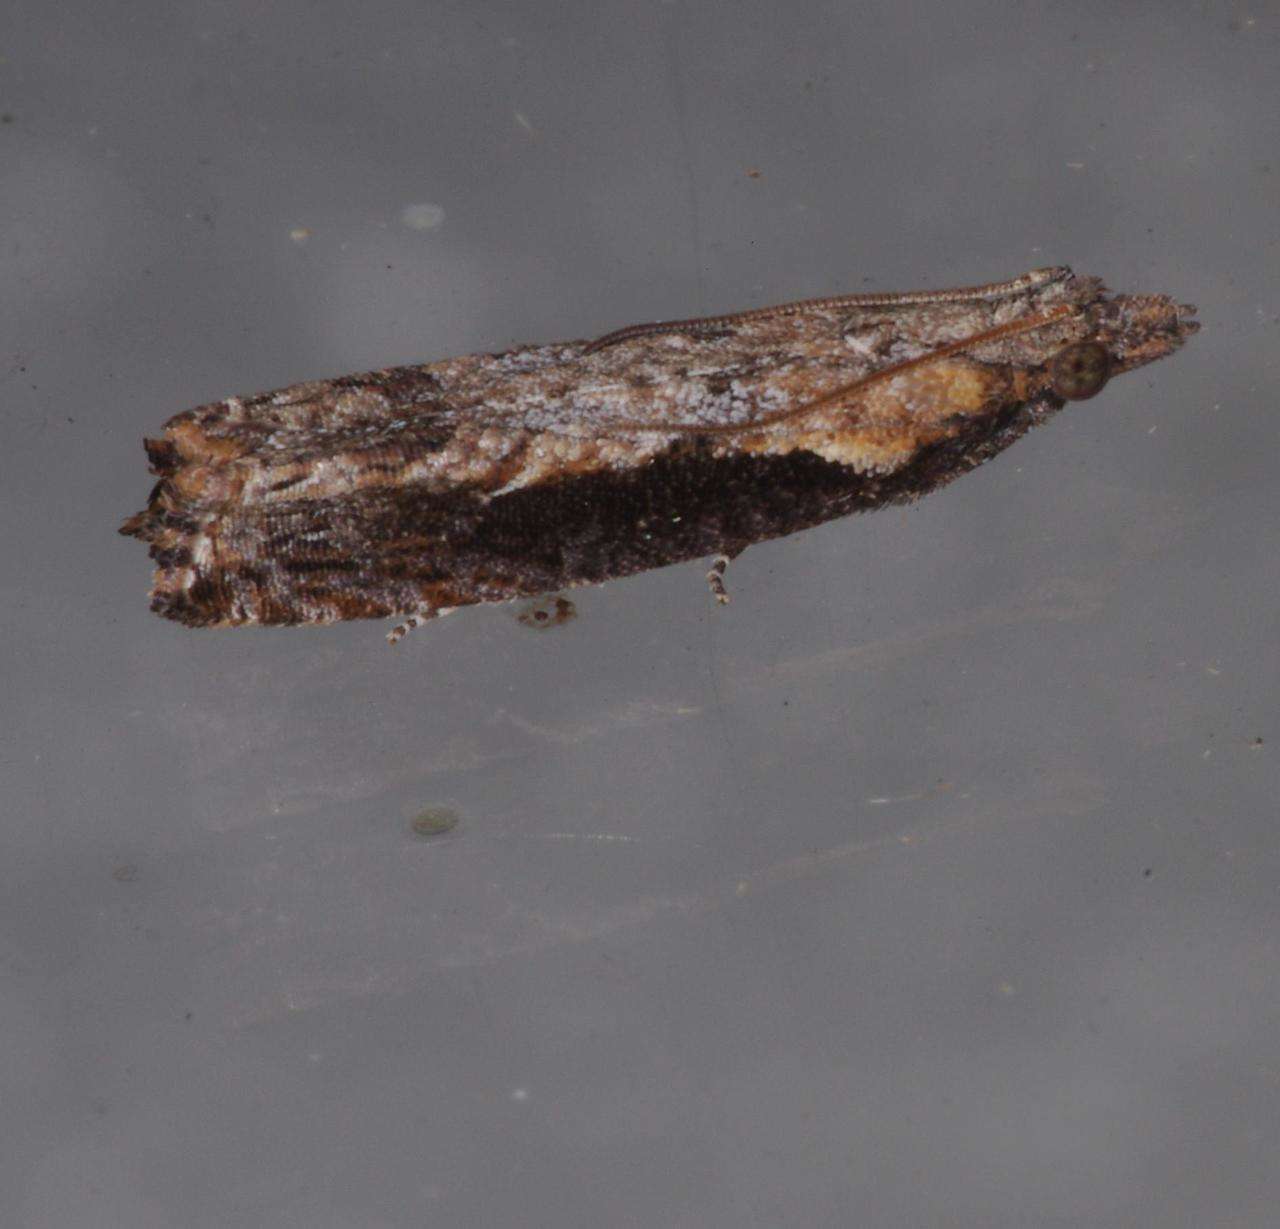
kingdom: Animalia
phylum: Arthropoda
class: Insecta
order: Lepidoptera
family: Tortricidae
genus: Strepsicrates
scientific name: Strepsicrates infensa
